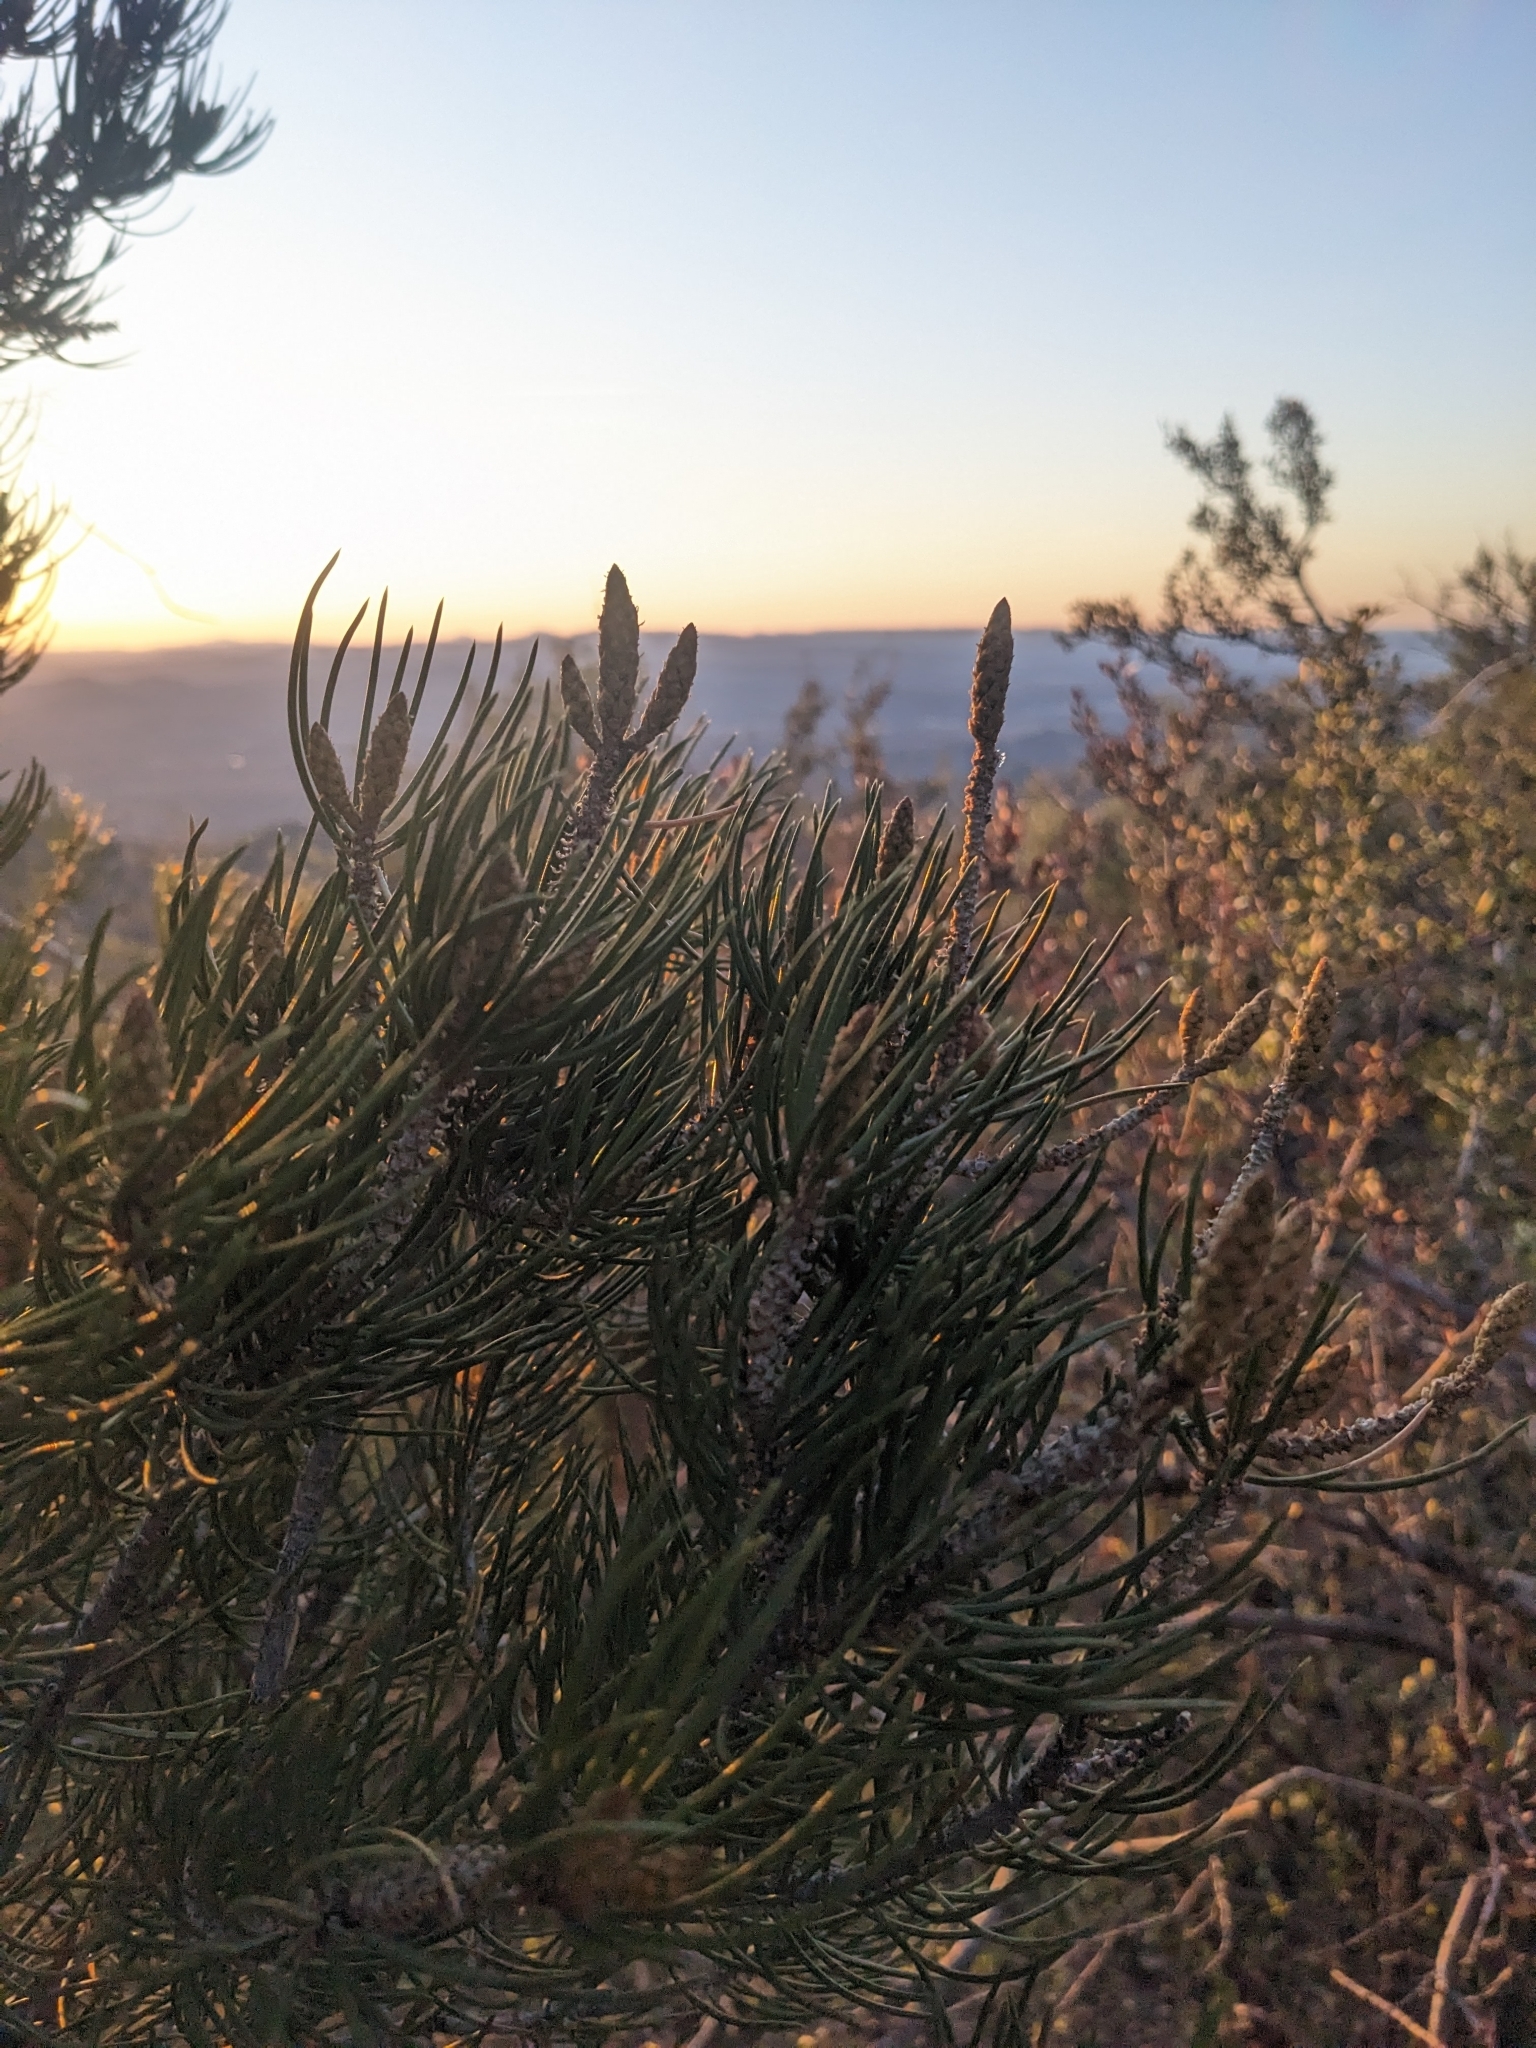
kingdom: Plantae
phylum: Tracheophyta
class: Pinopsida
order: Pinales
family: Pinaceae
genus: Pinus
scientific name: Pinus monophylla
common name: One-leaved nut pine
